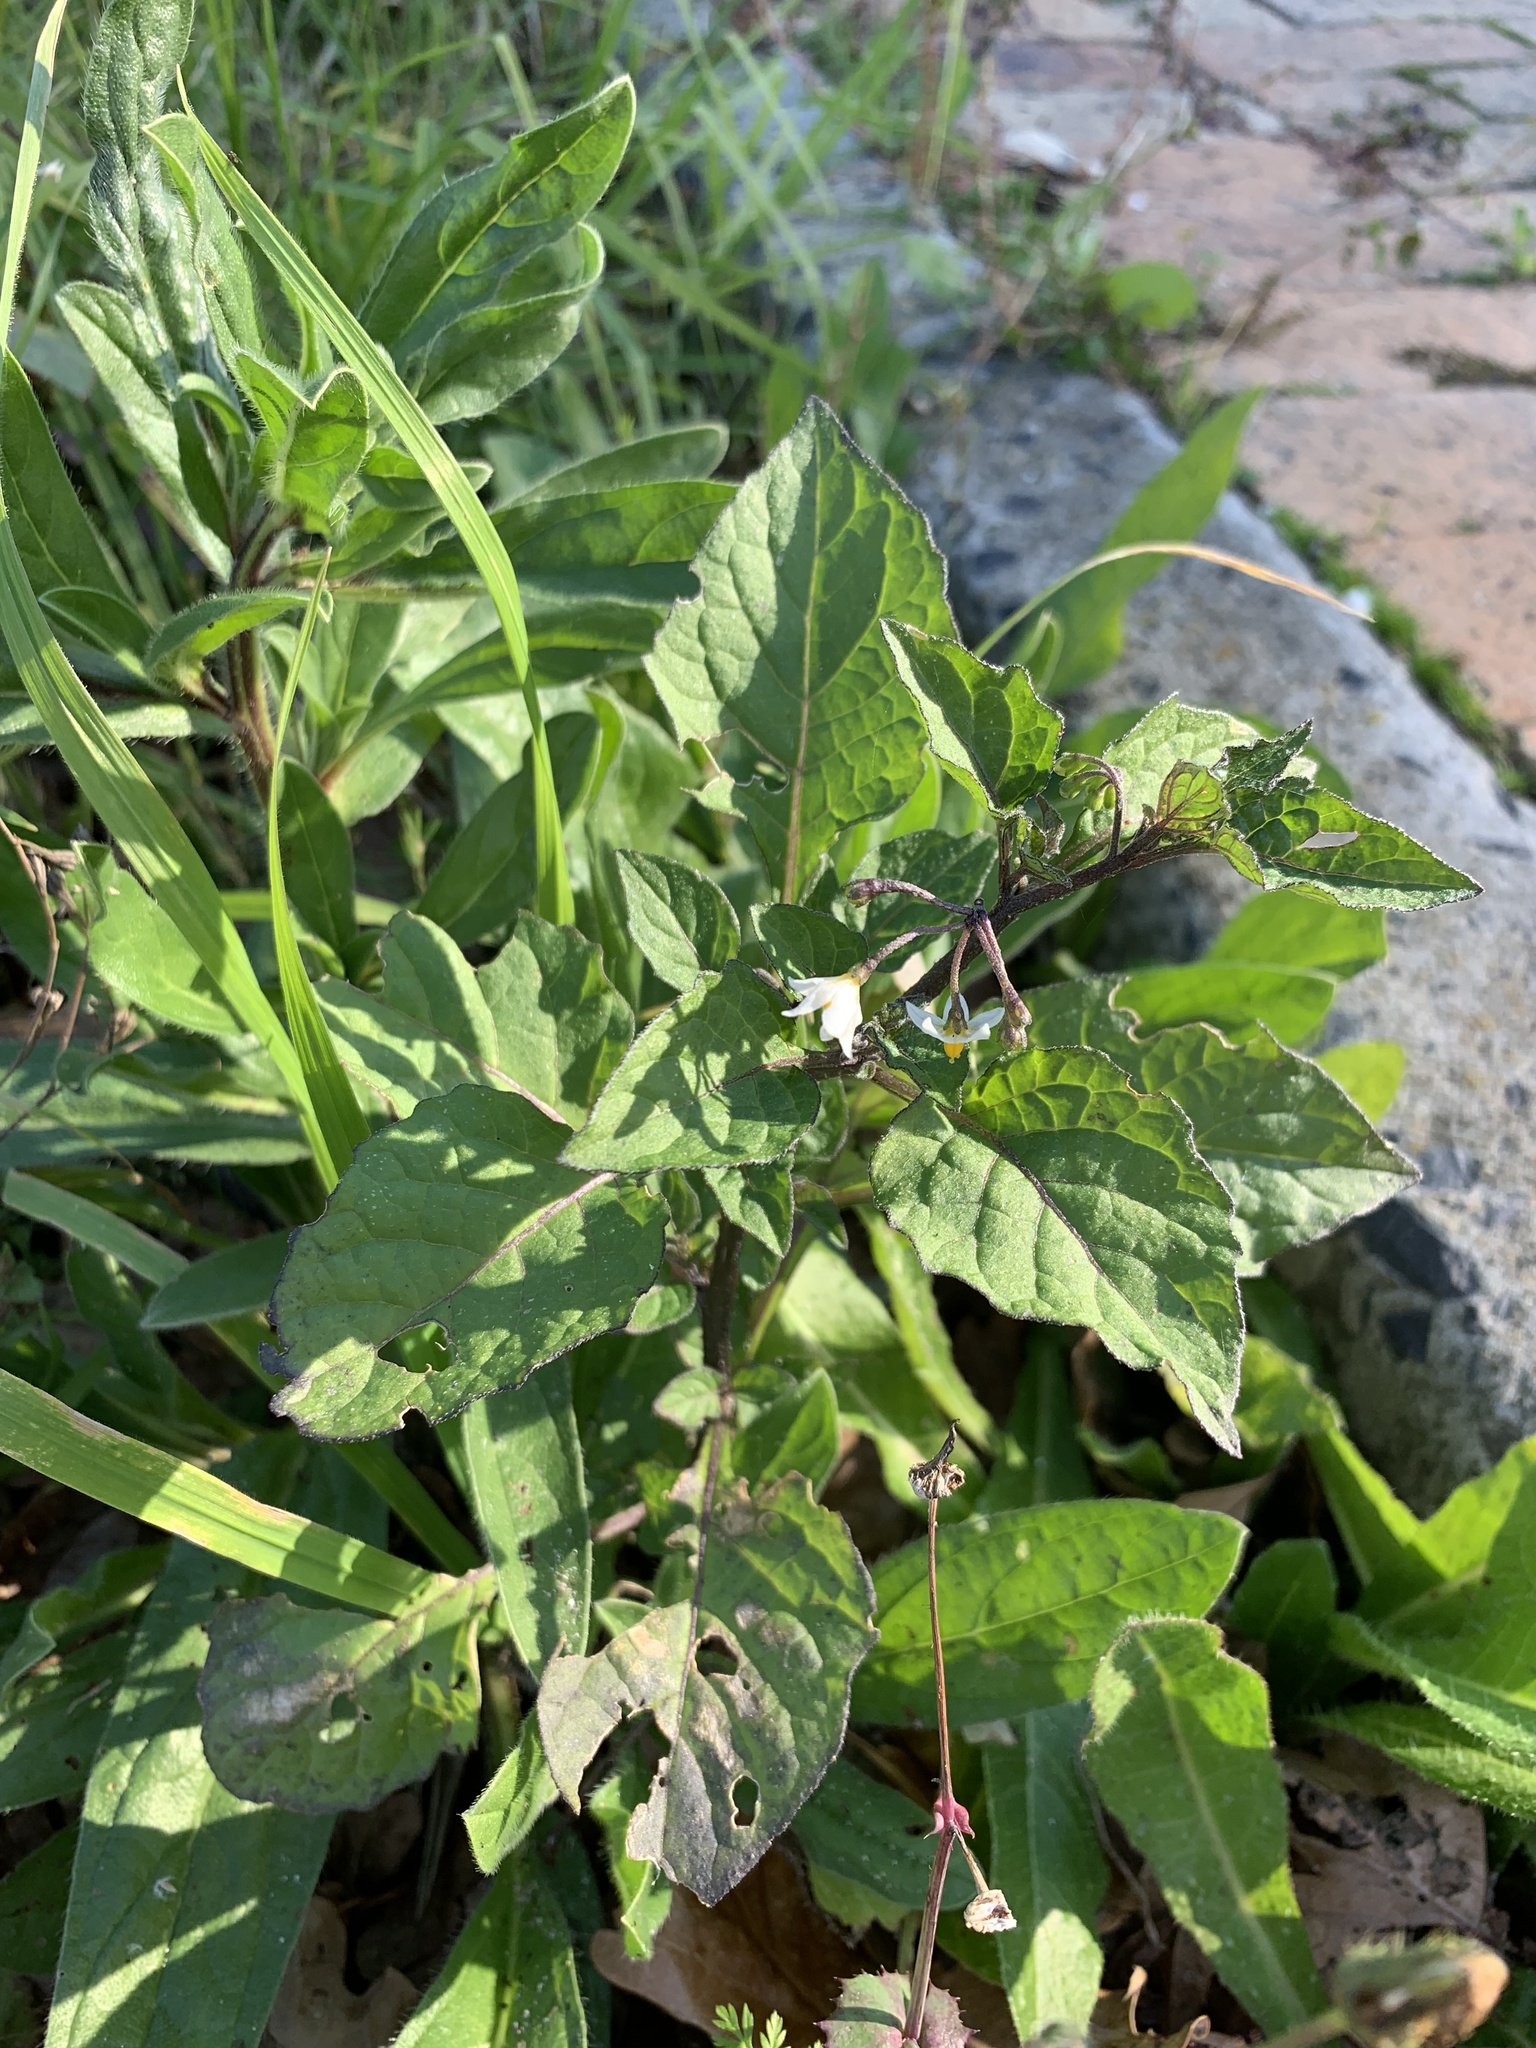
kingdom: Plantae
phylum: Tracheophyta
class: Magnoliopsida
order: Solanales
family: Solanaceae
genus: Solanum
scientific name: Solanum nigrum
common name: Black nightshade
